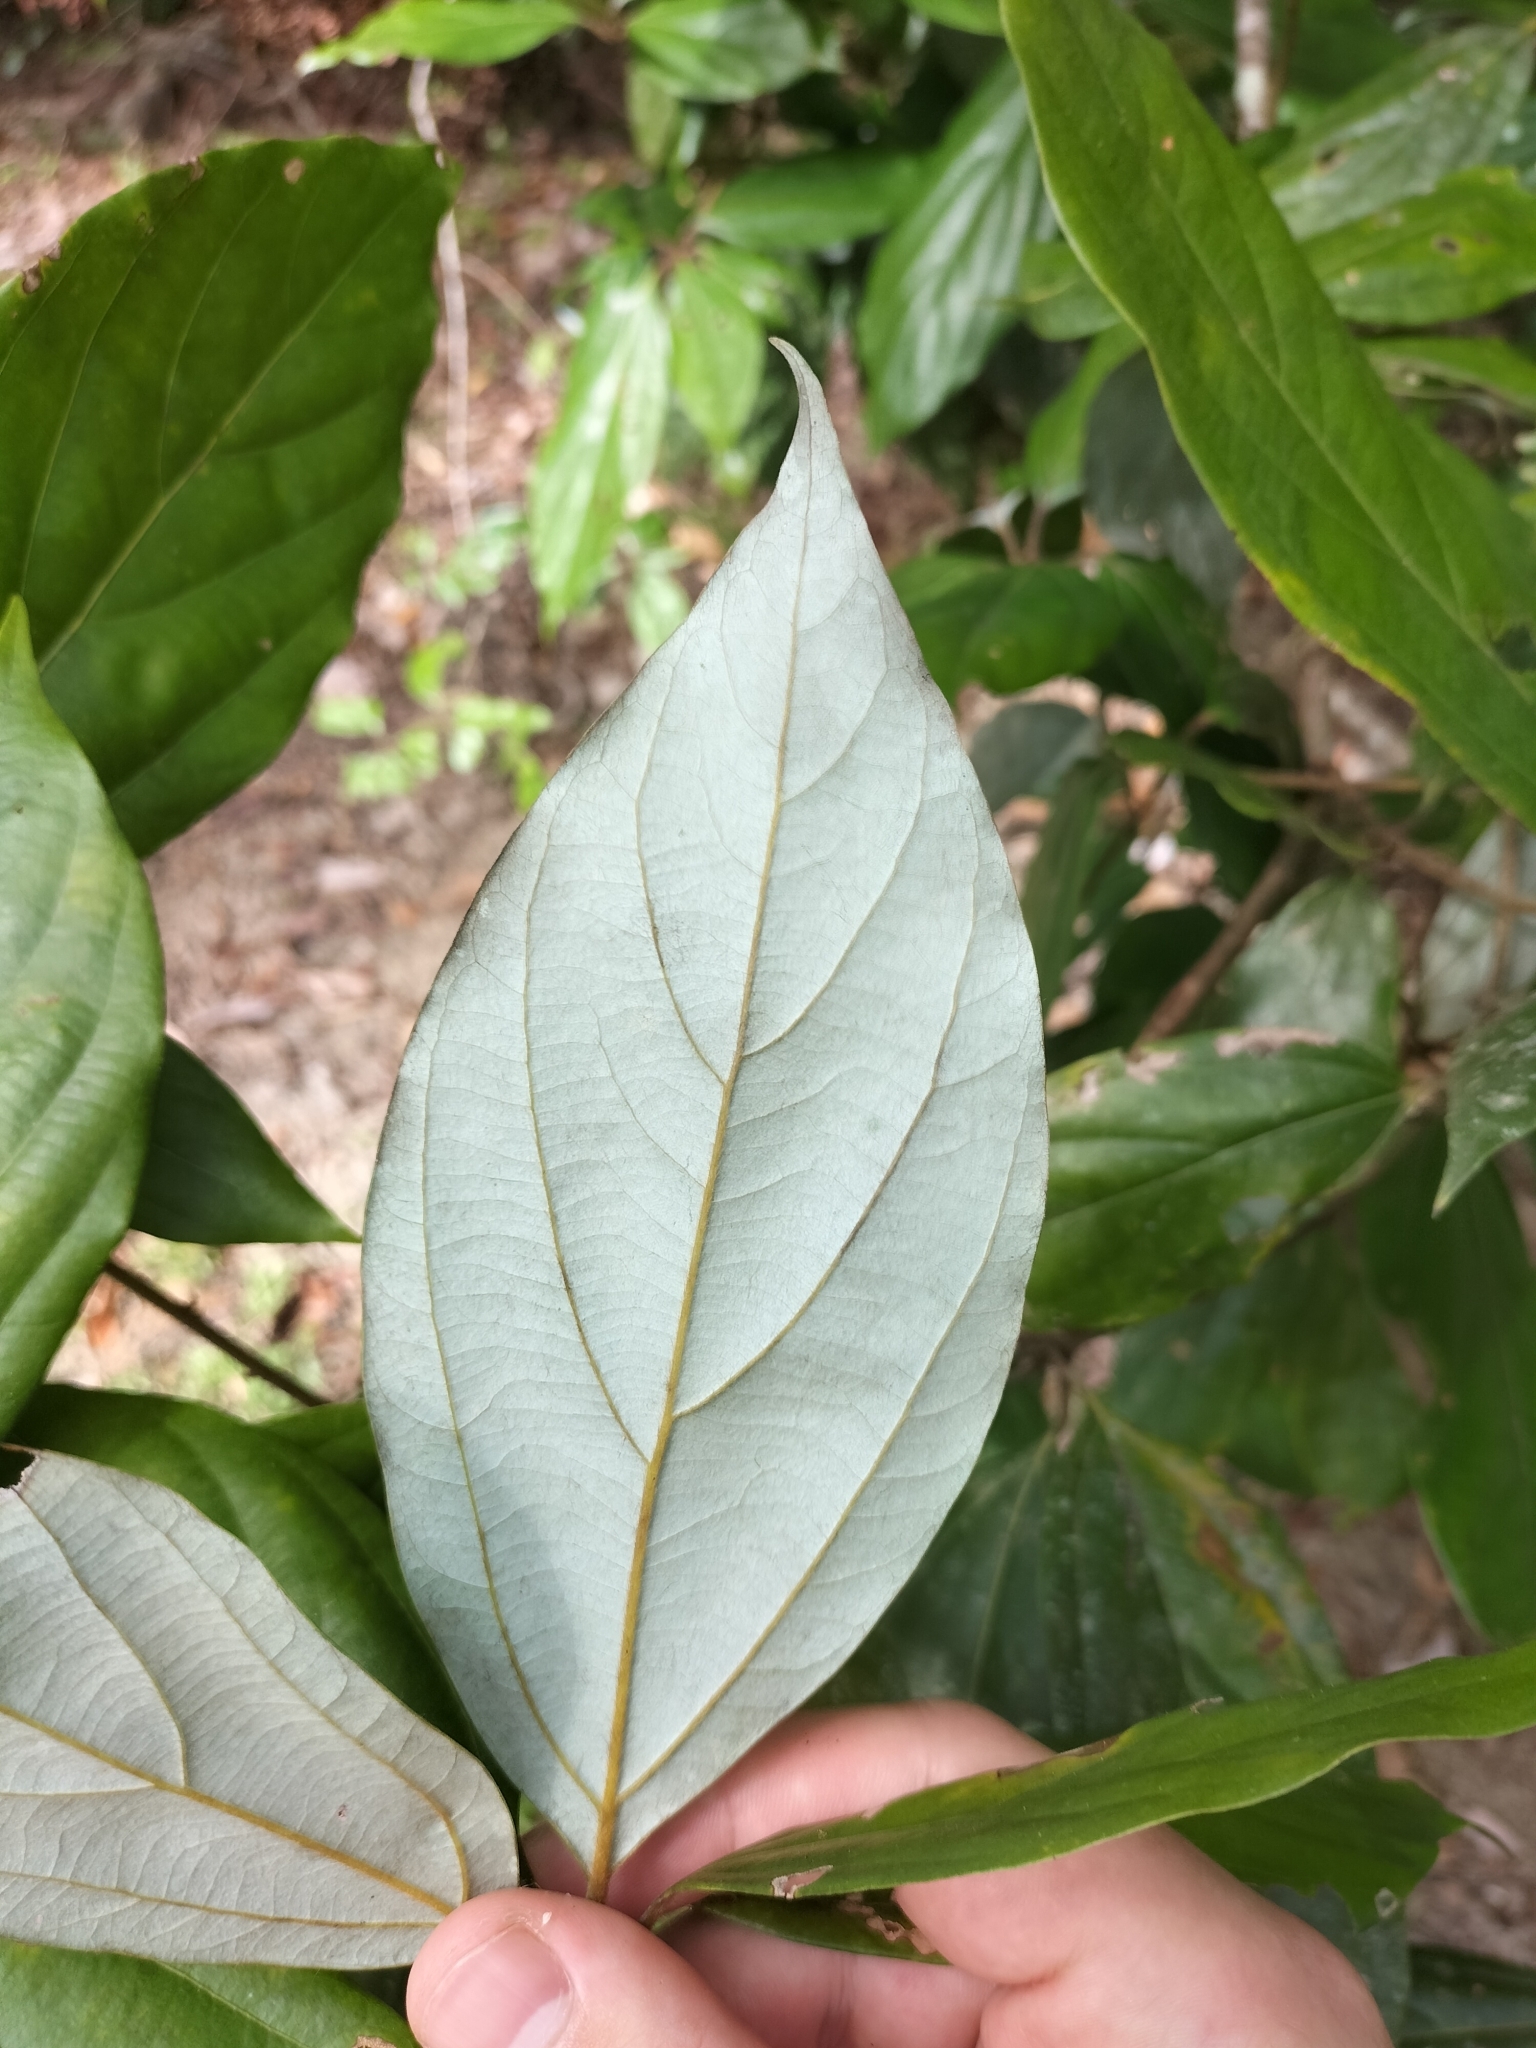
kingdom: Plantae
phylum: Tracheophyta
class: Magnoliopsida
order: Laurales
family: Lauraceae
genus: Neolitsea
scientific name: Neolitsea dealbata
